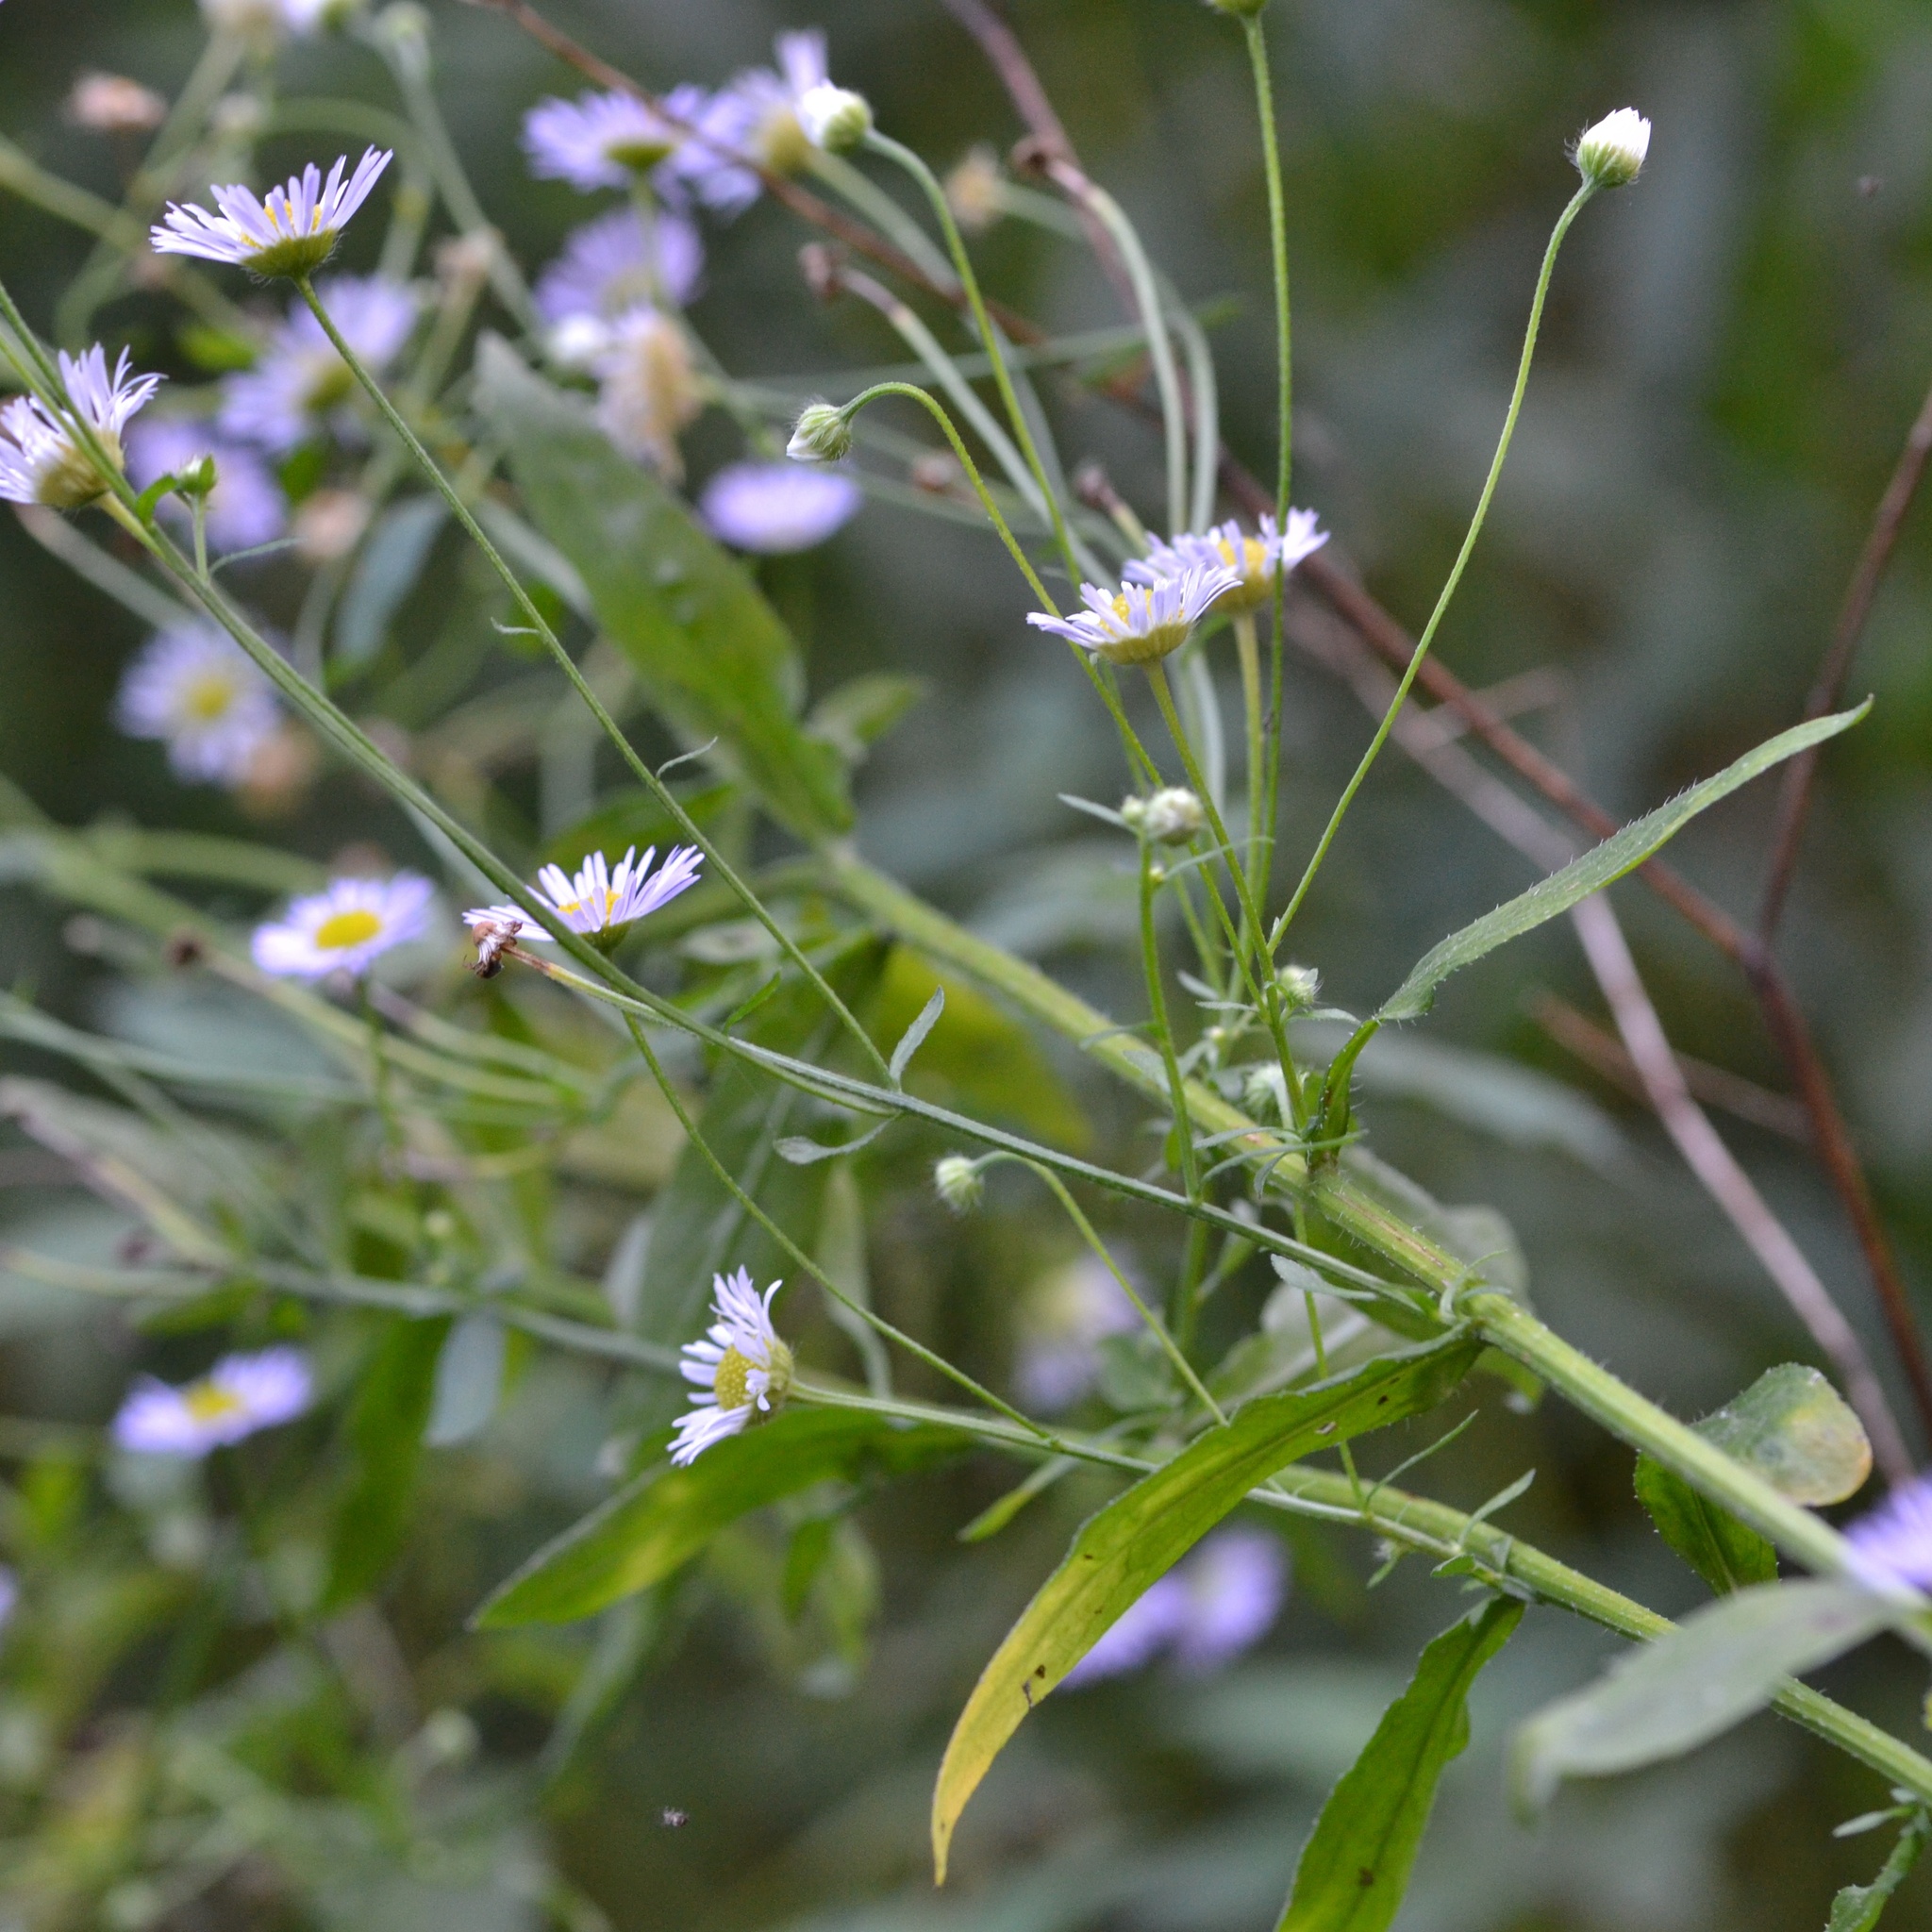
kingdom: Plantae
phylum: Tracheophyta
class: Magnoliopsida
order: Asterales
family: Asteraceae
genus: Erigeron
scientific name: Erigeron annuus
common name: Tall fleabane
